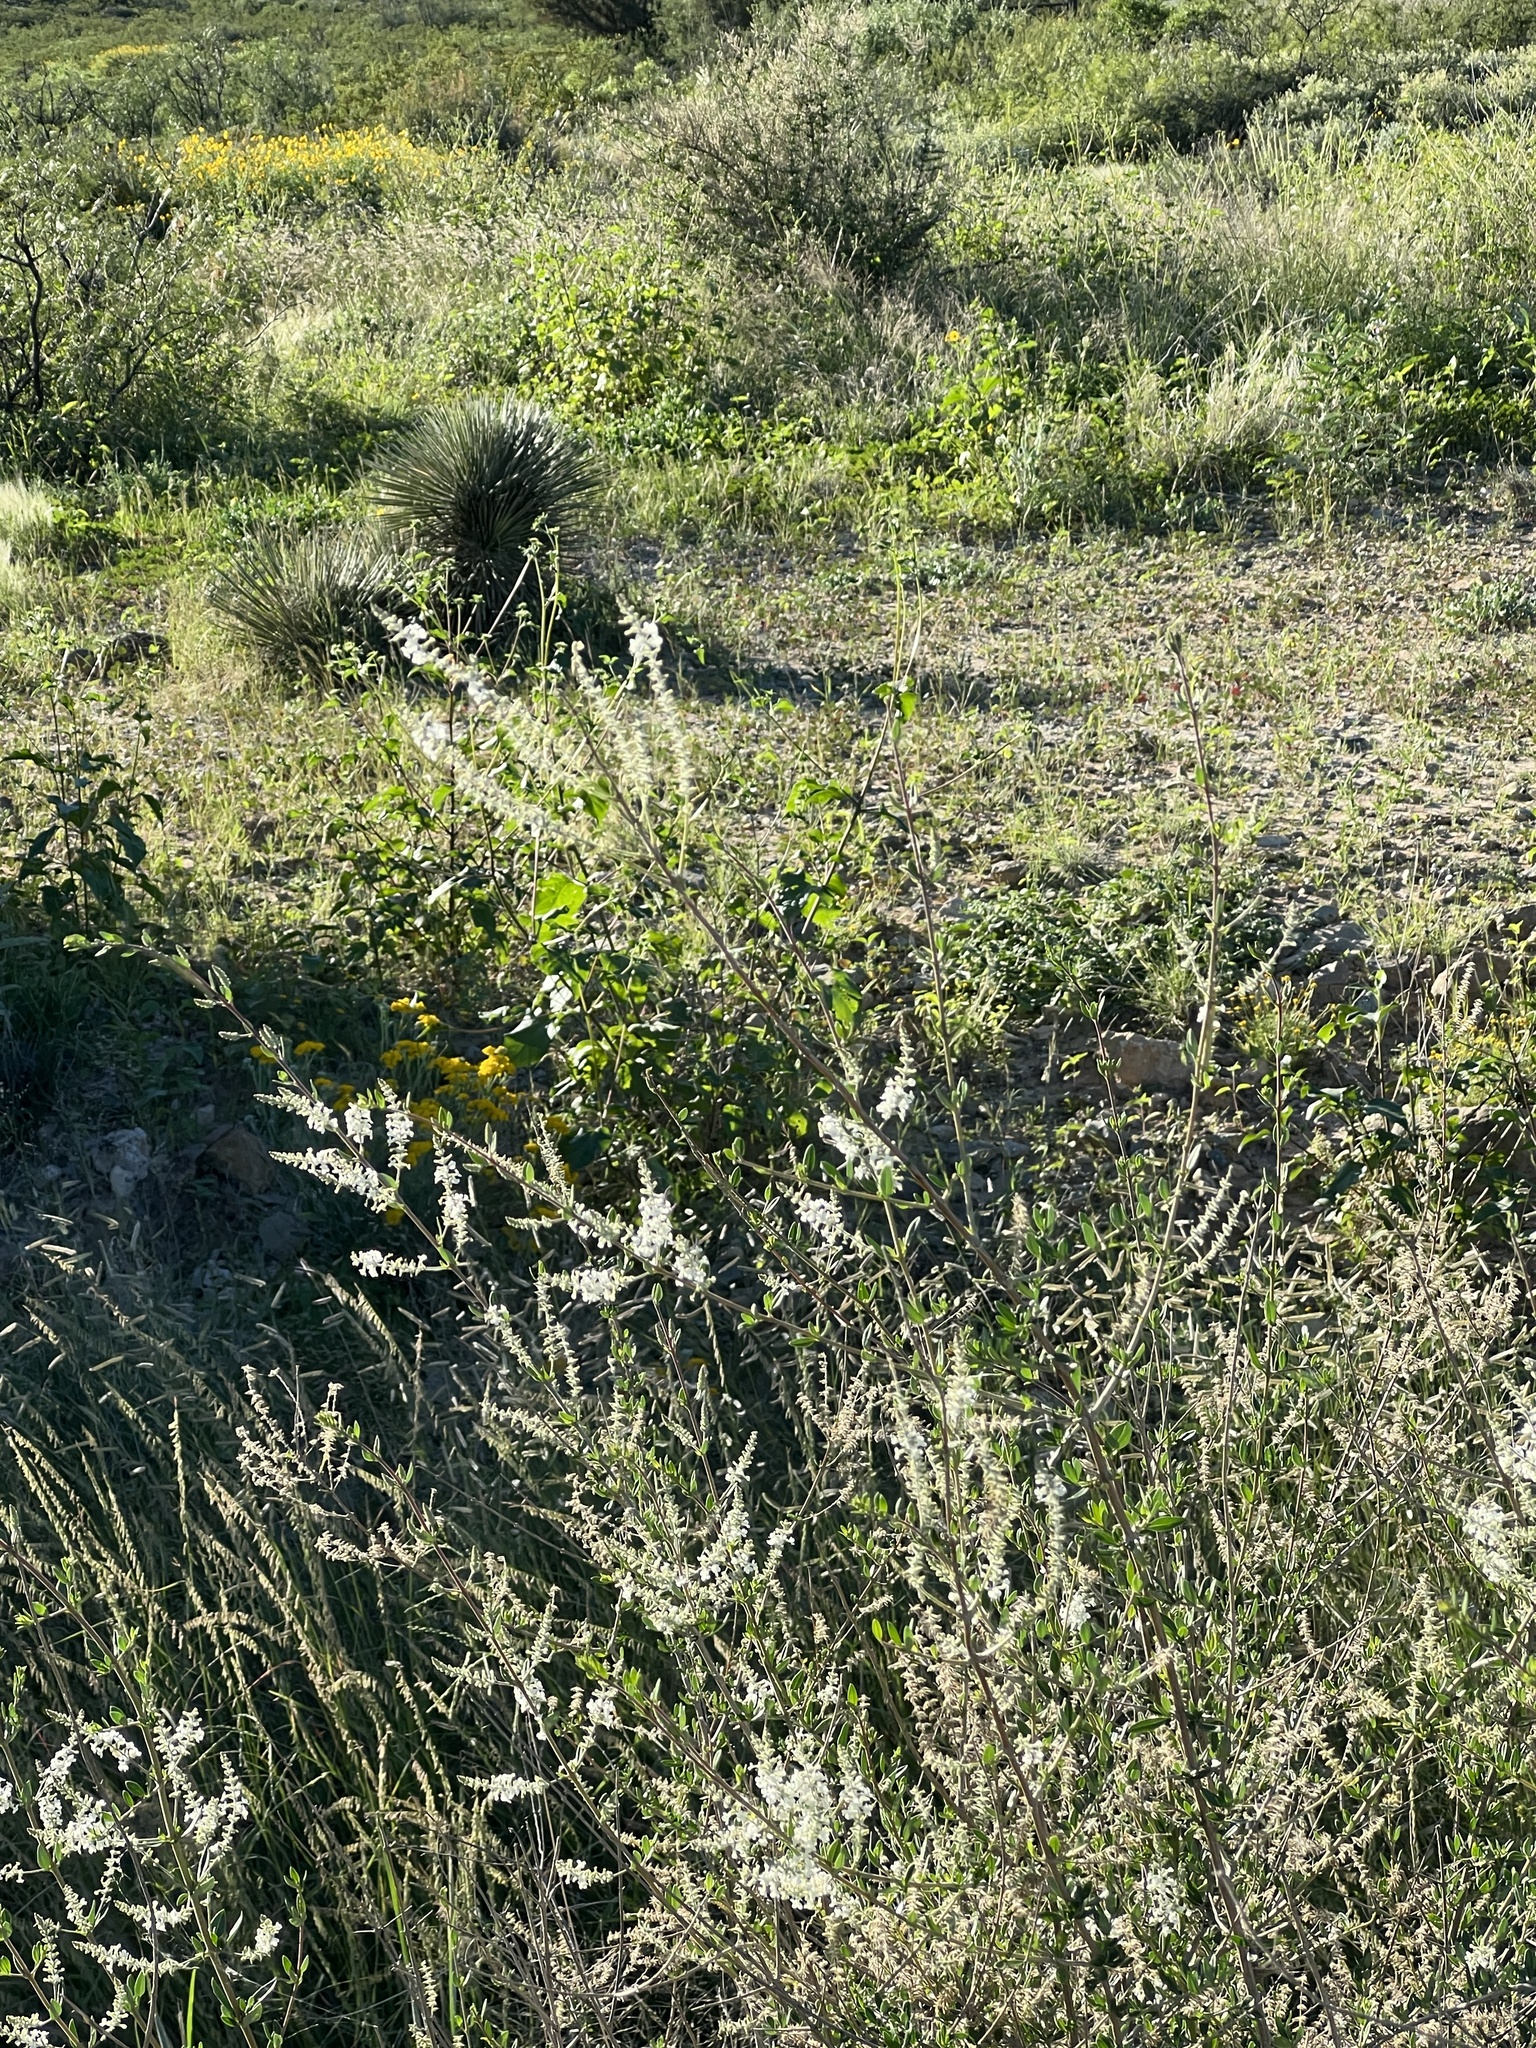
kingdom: Plantae
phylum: Tracheophyta
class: Magnoliopsida
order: Lamiales
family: Verbenaceae
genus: Aloysia
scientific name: Aloysia gratissima
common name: Common bee-brush
